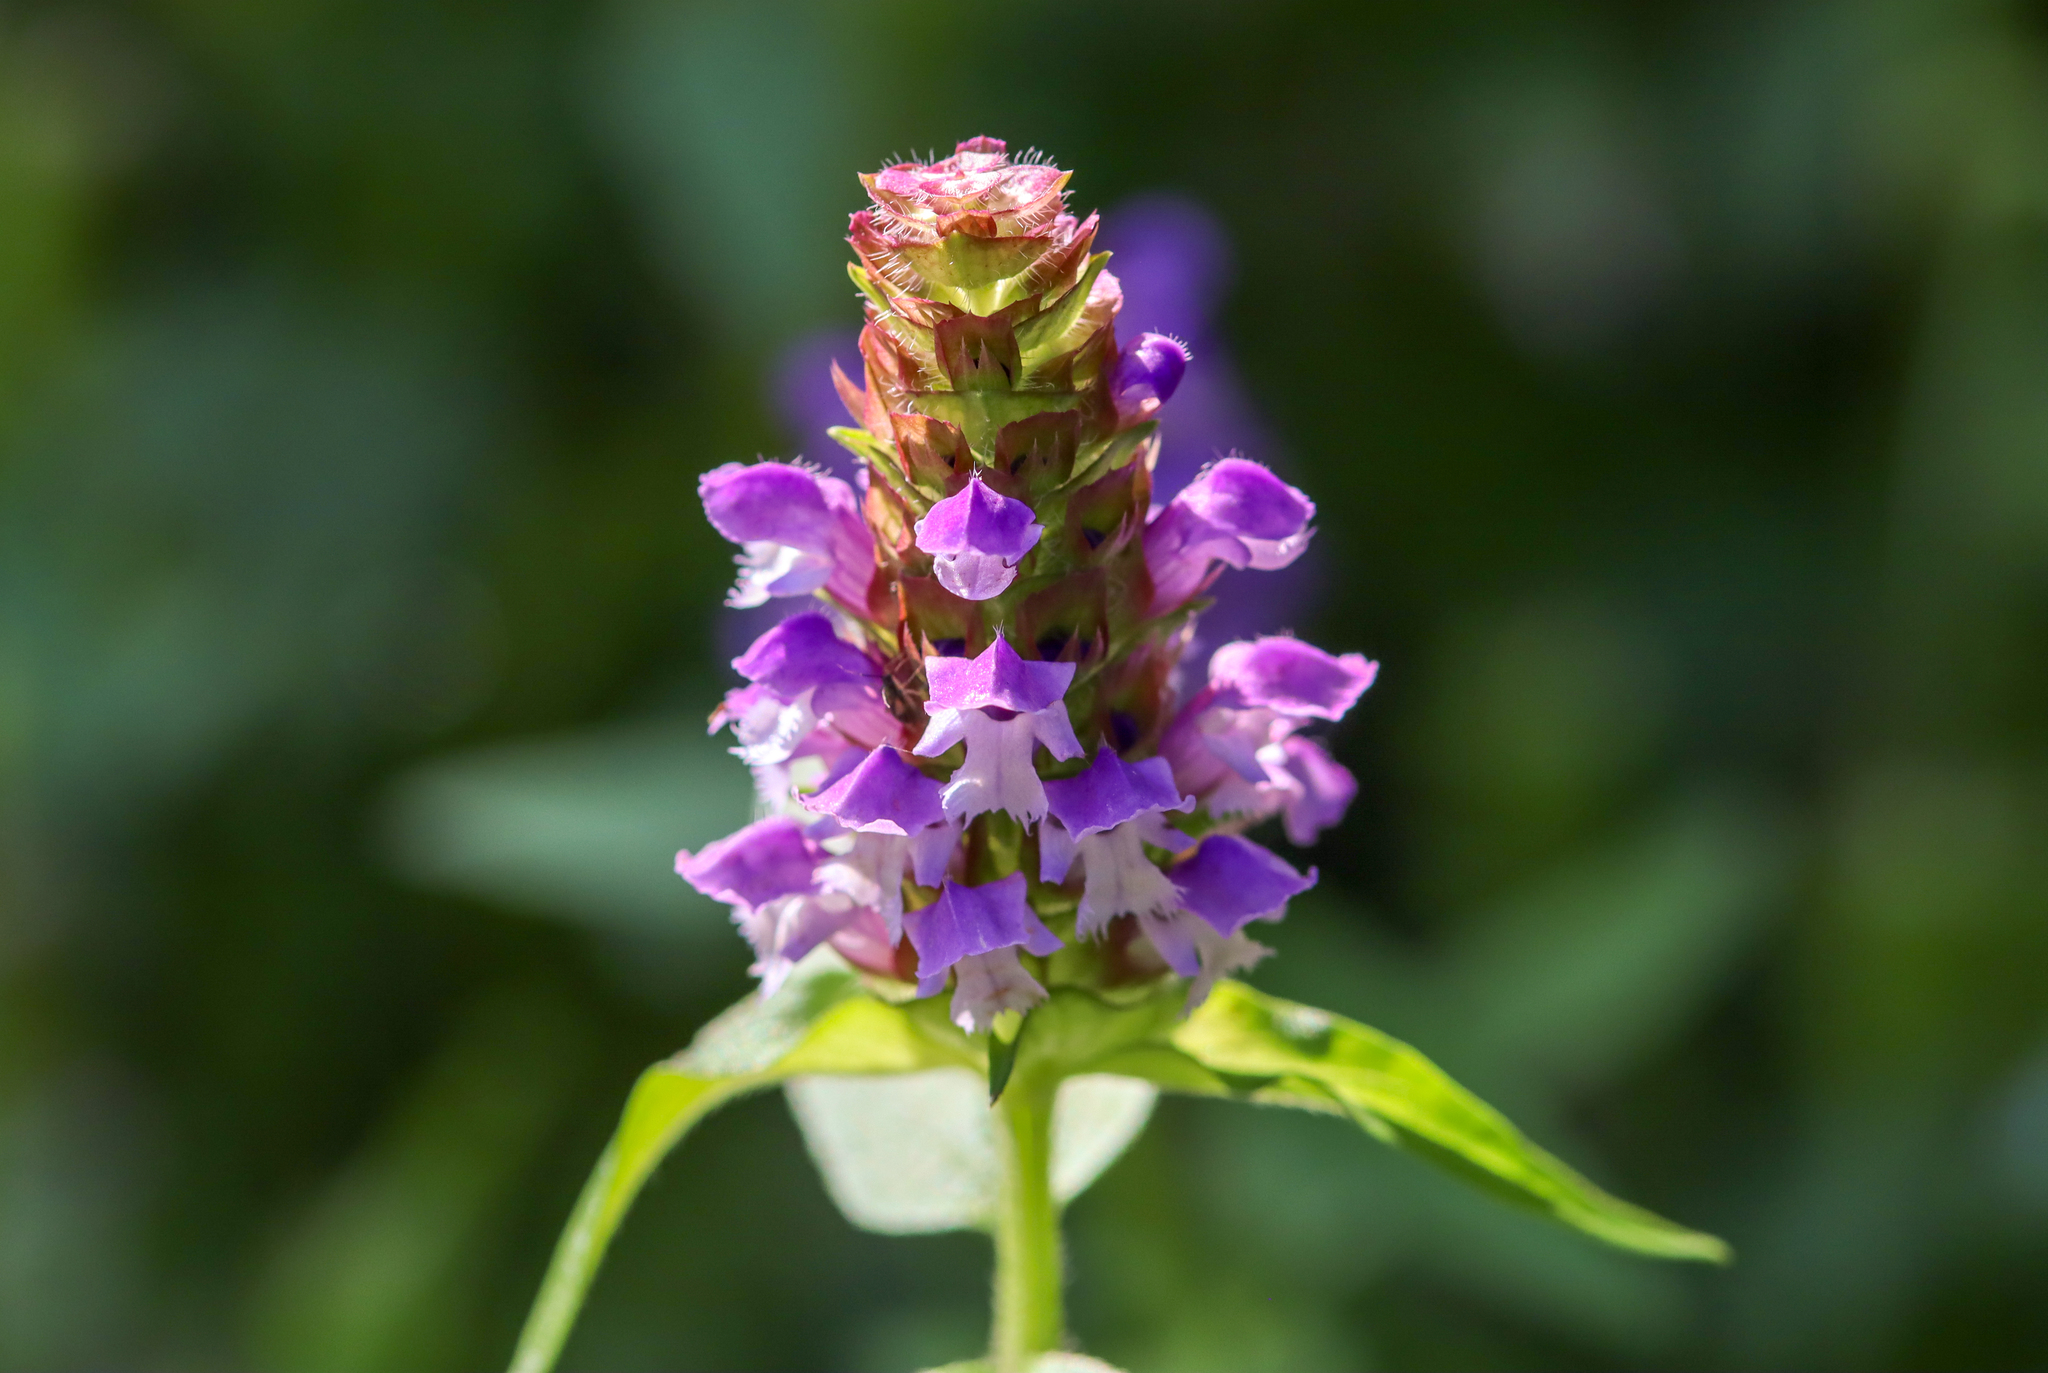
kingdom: Plantae
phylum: Tracheophyta
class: Magnoliopsida
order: Lamiales
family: Lamiaceae
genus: Prunella
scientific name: Prunella vulgaris
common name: Heal-all
